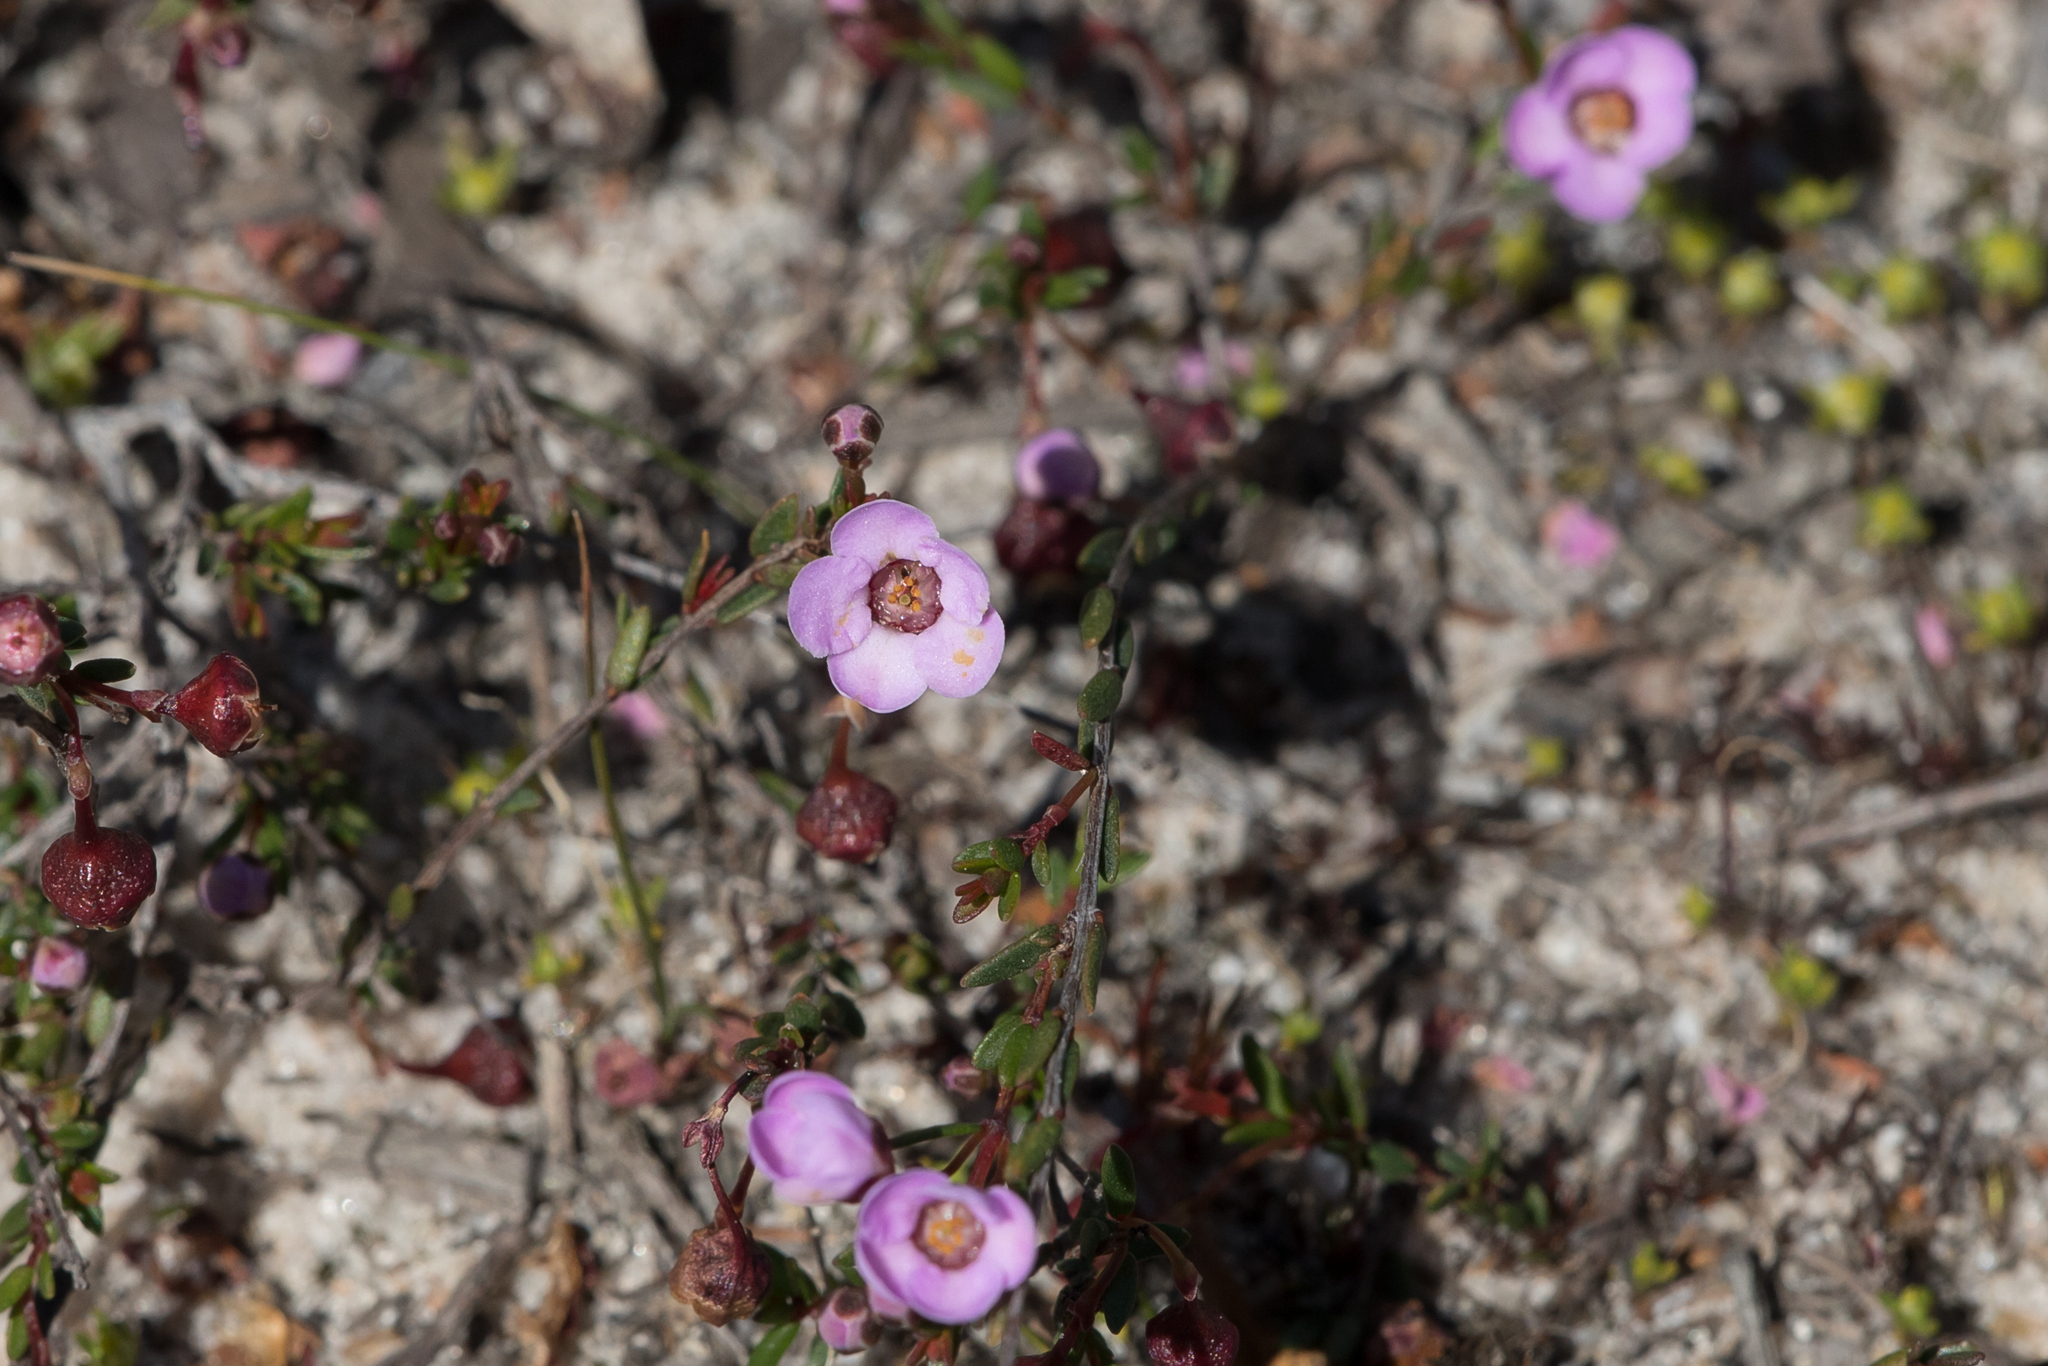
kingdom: Plantae
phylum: Tracheophyta
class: Magnoliopsida
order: Myrtales
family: Myrtaceae
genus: Euryomyrtus
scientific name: Euryomyrtus ramosissima
